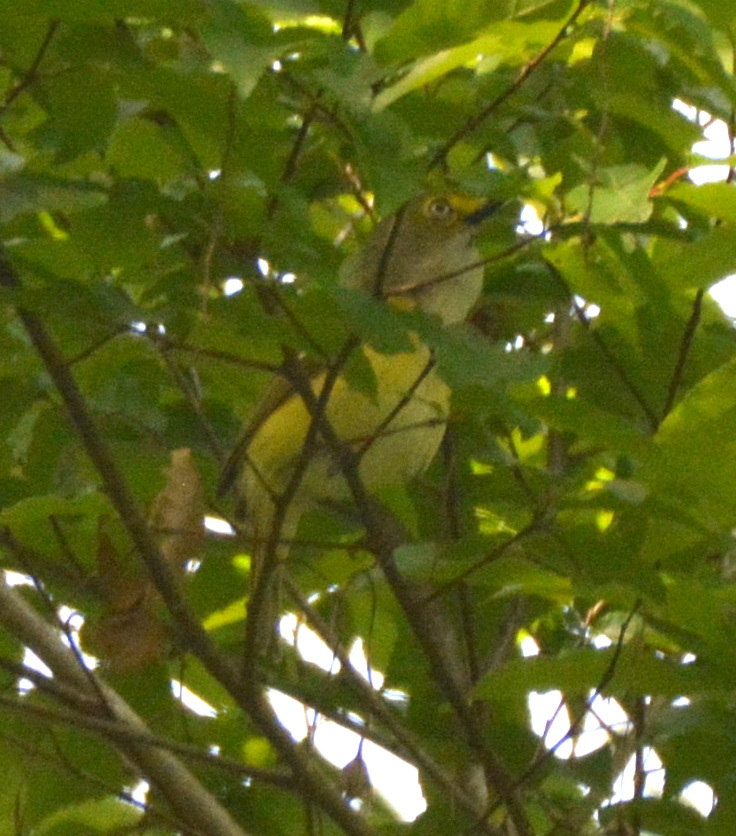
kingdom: Animalia
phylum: Chordata
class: Aves
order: Passeriformes
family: Vireonidae
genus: Vireo
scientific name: Vireo griseus
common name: White-eyed vireo
